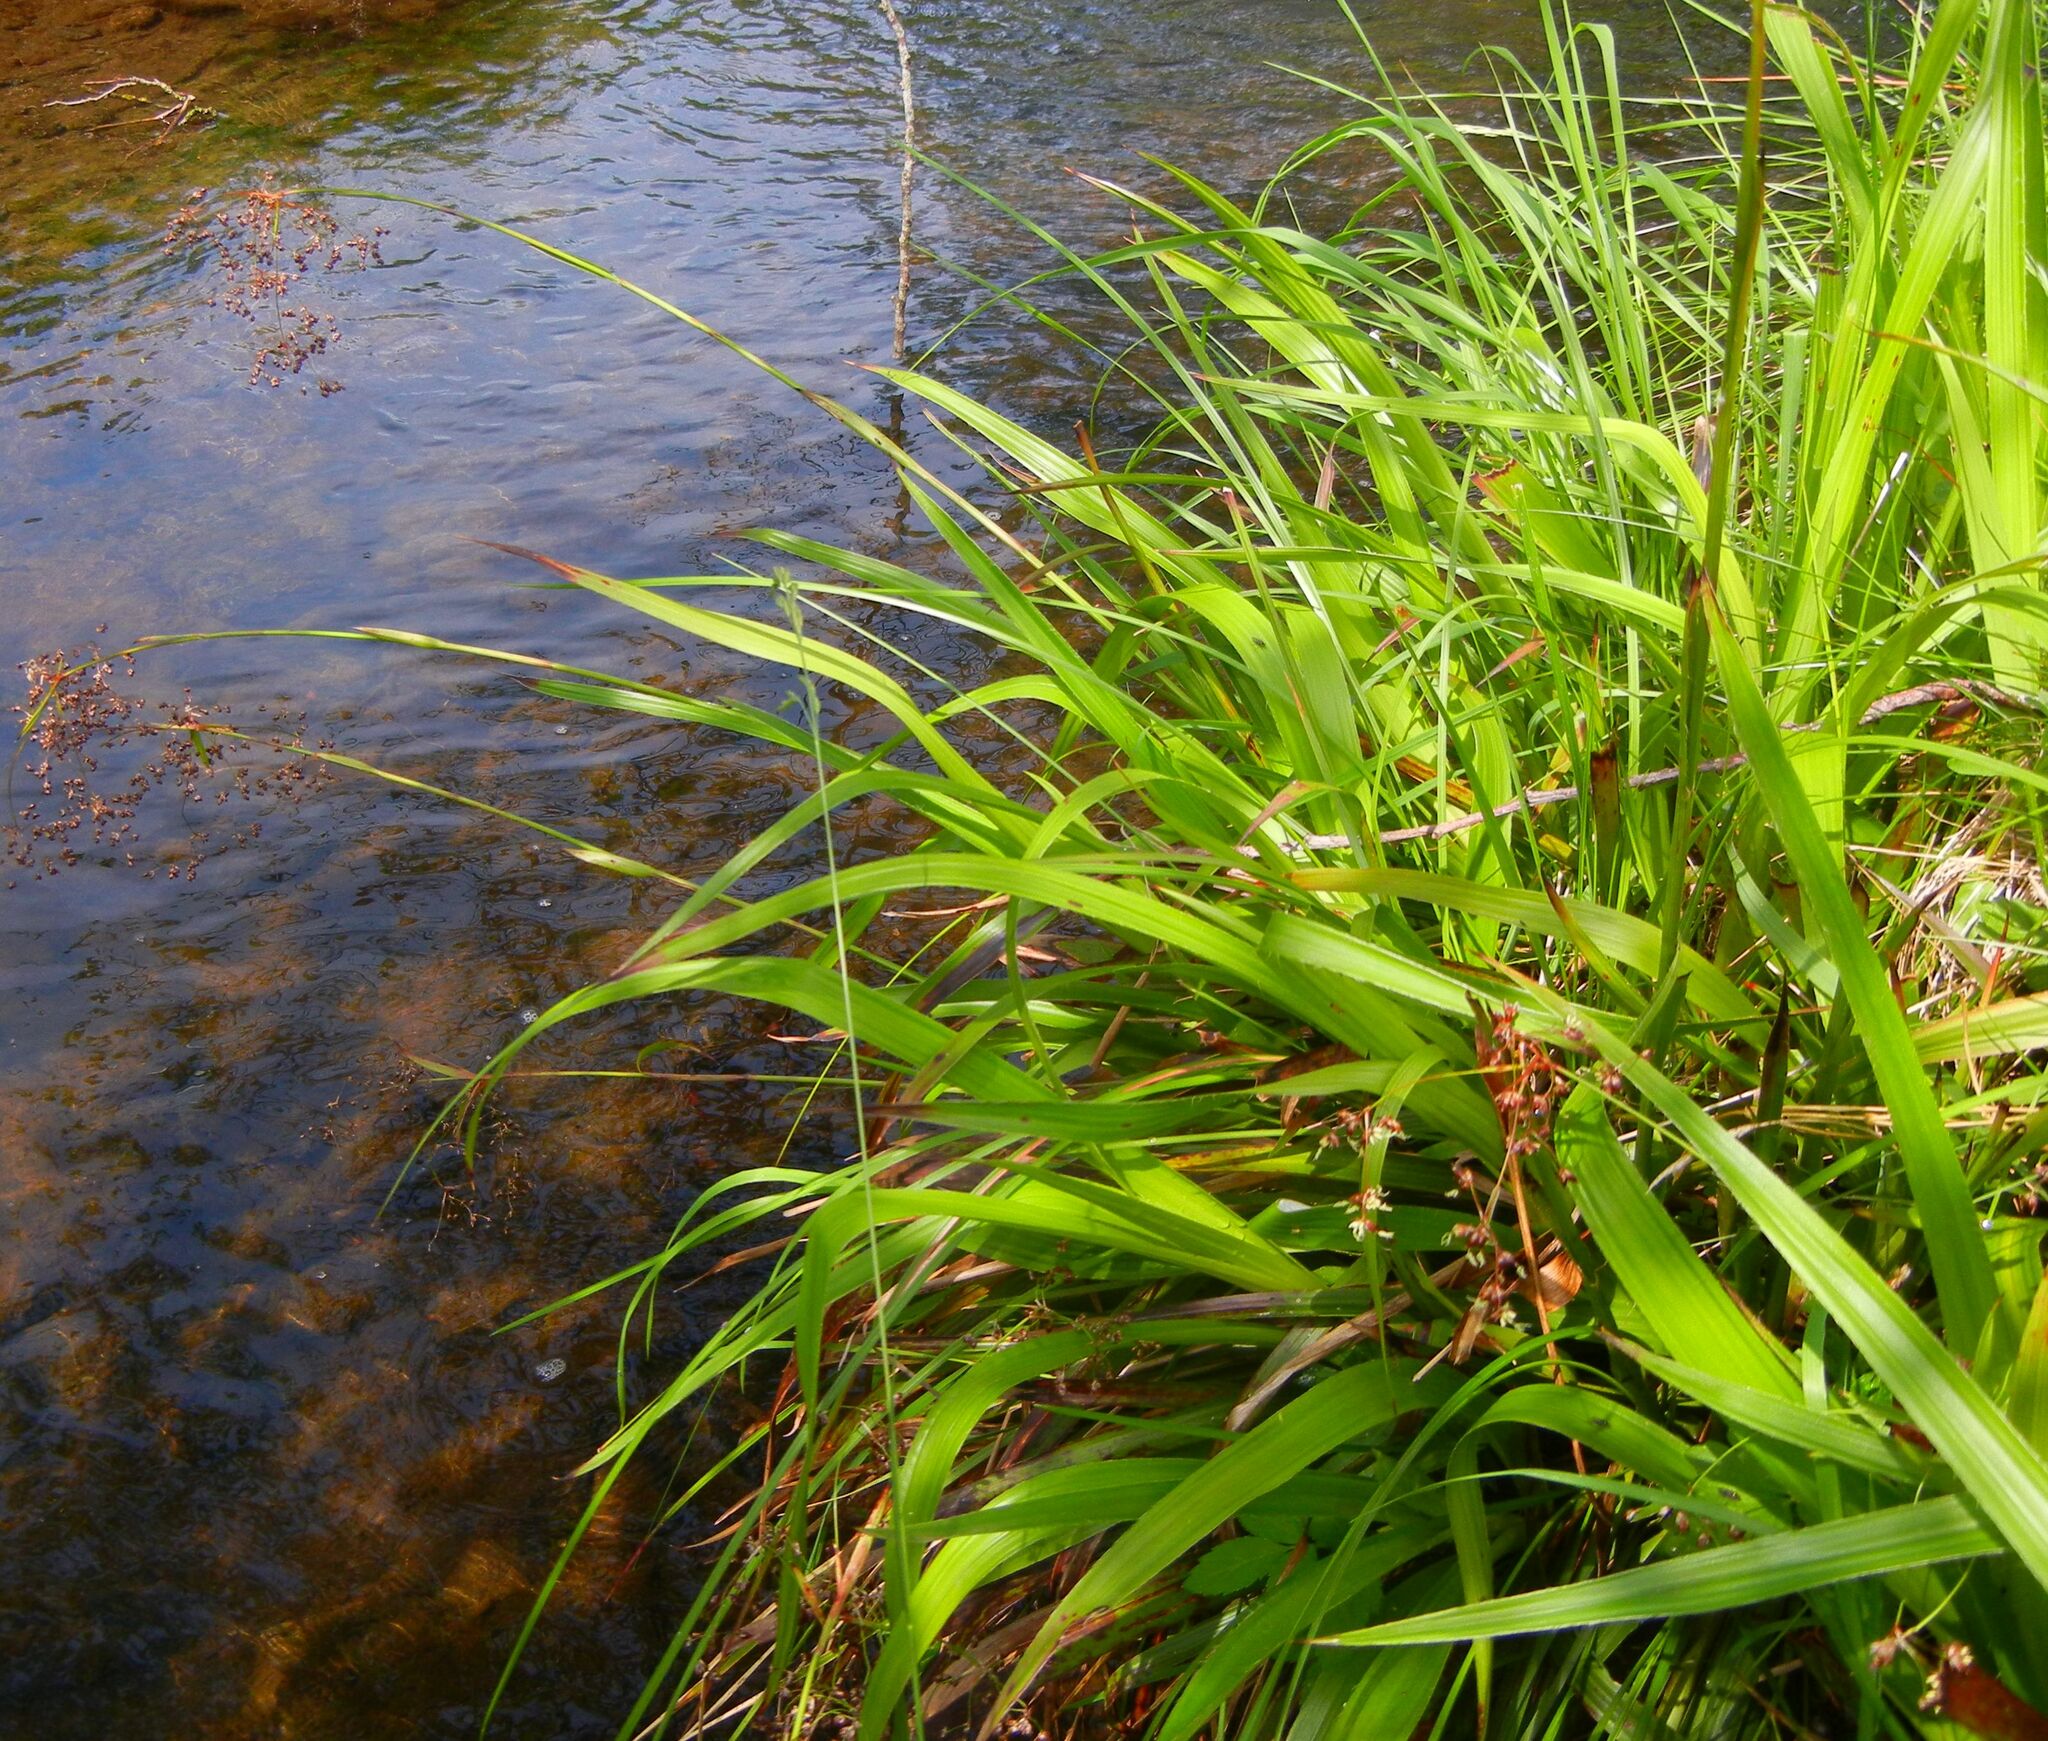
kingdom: Plantae
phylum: Tracheophyta
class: Liliopsida
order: Poales
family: Juncaceae
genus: Luzula
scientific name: Luzula sylvatica
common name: Great wood-rush
